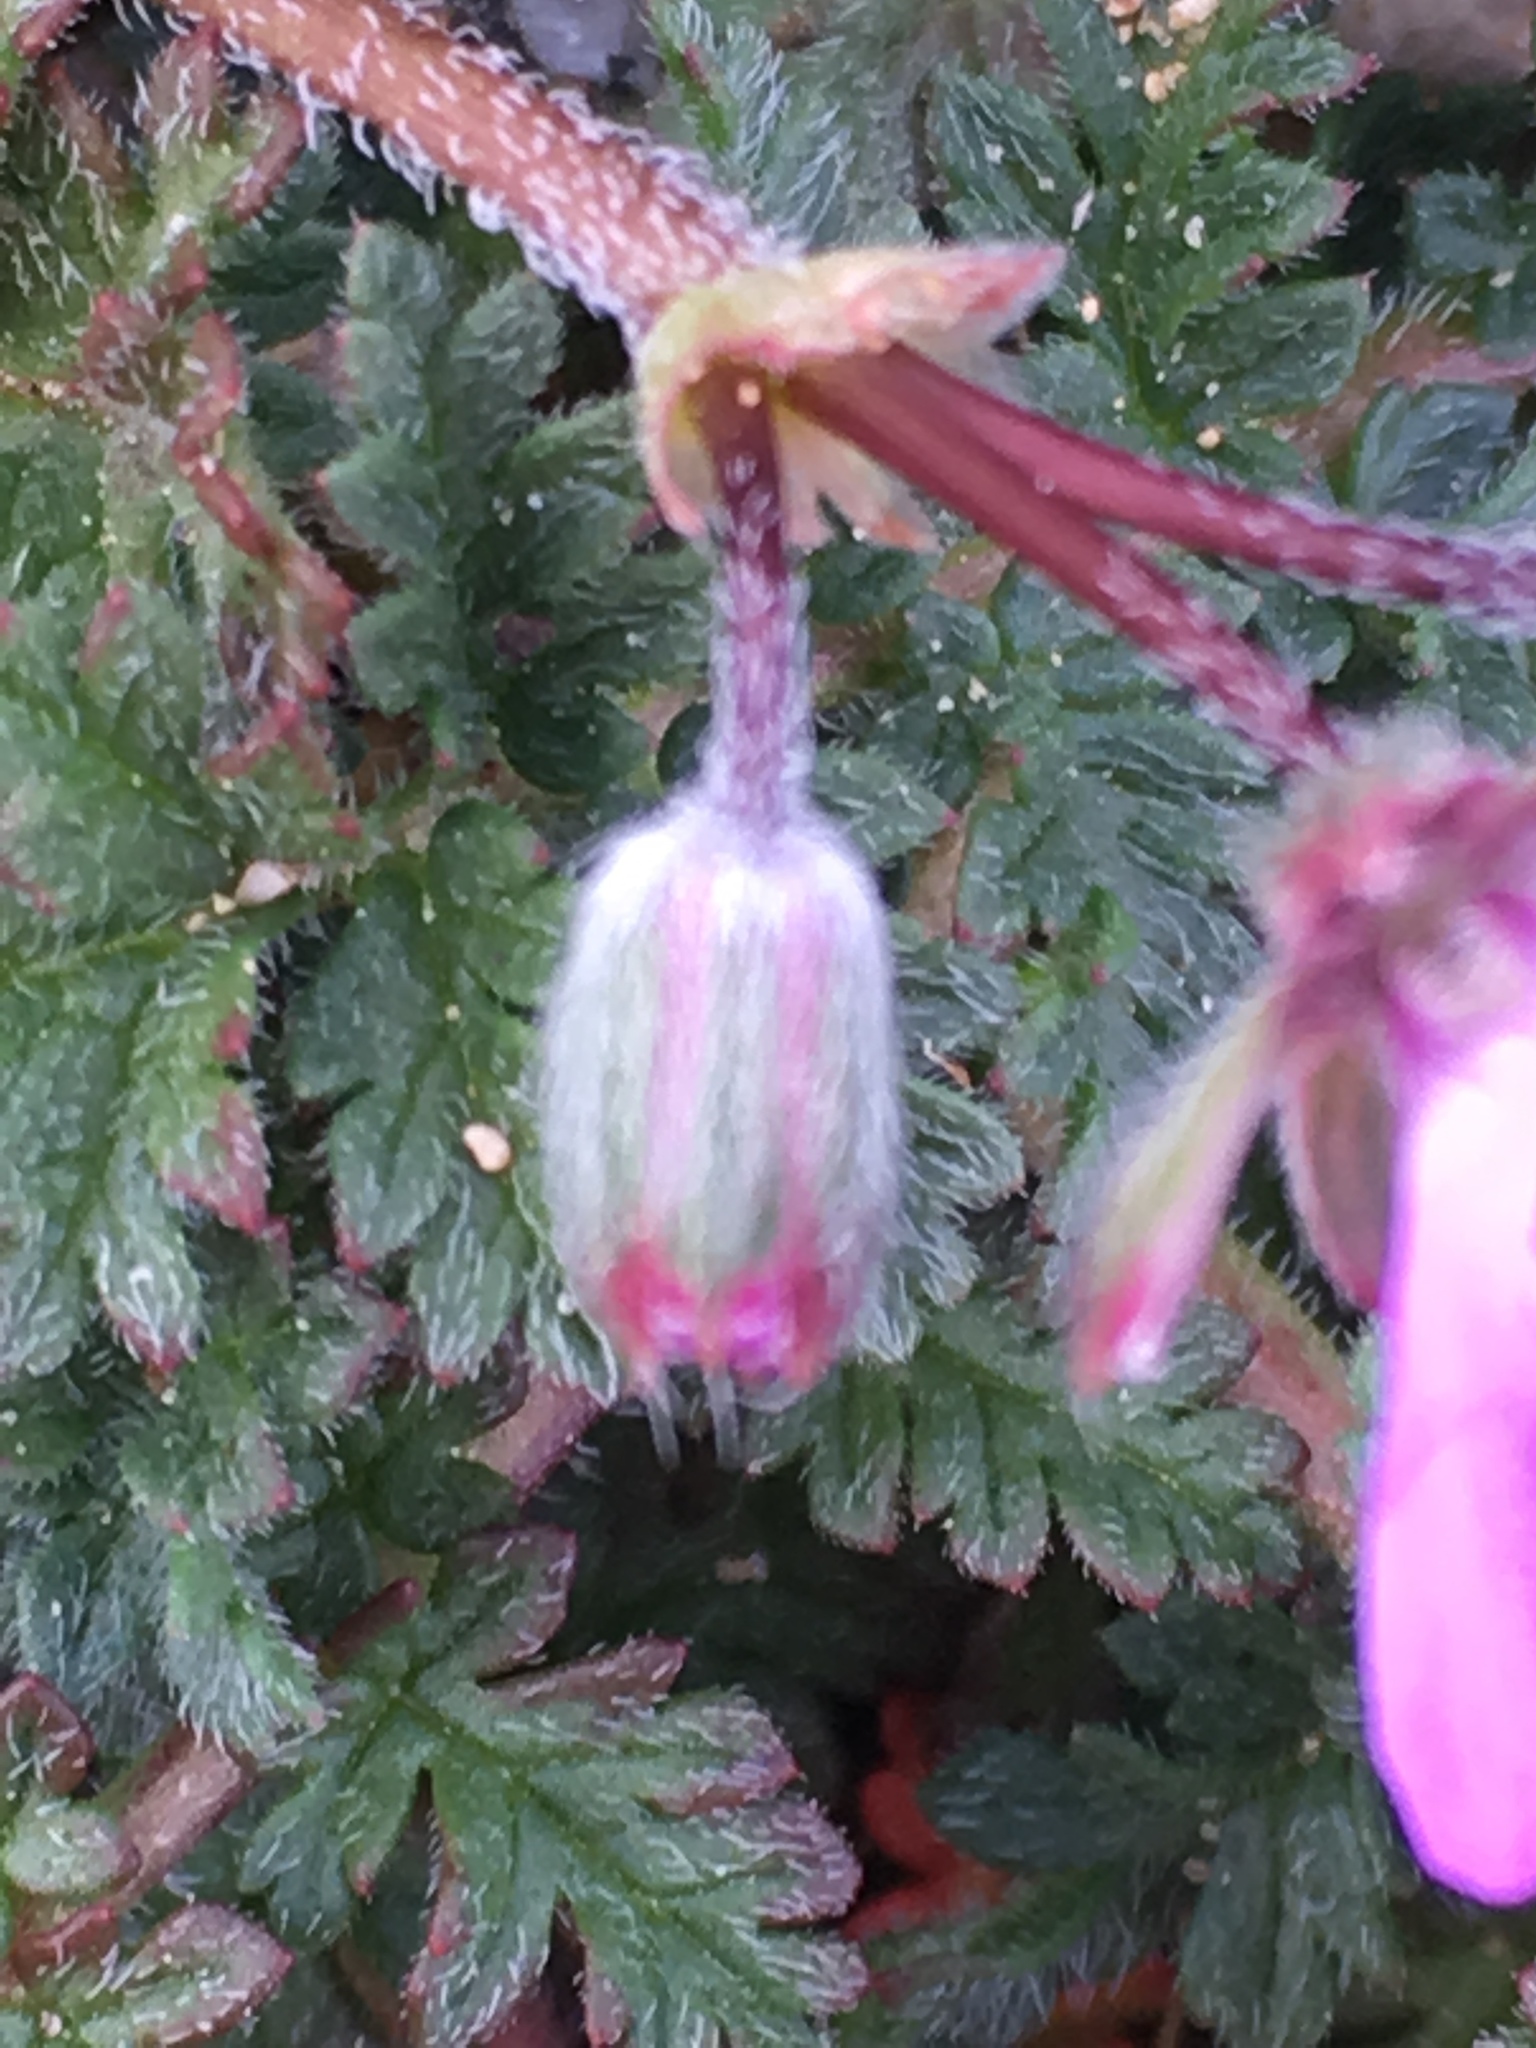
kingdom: Plantae
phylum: Tracheophyta
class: Magnoliopsida
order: Geraniales
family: Geraniaceae
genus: Erodium
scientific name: Erodium cicutarium
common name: Common stork's-bill
